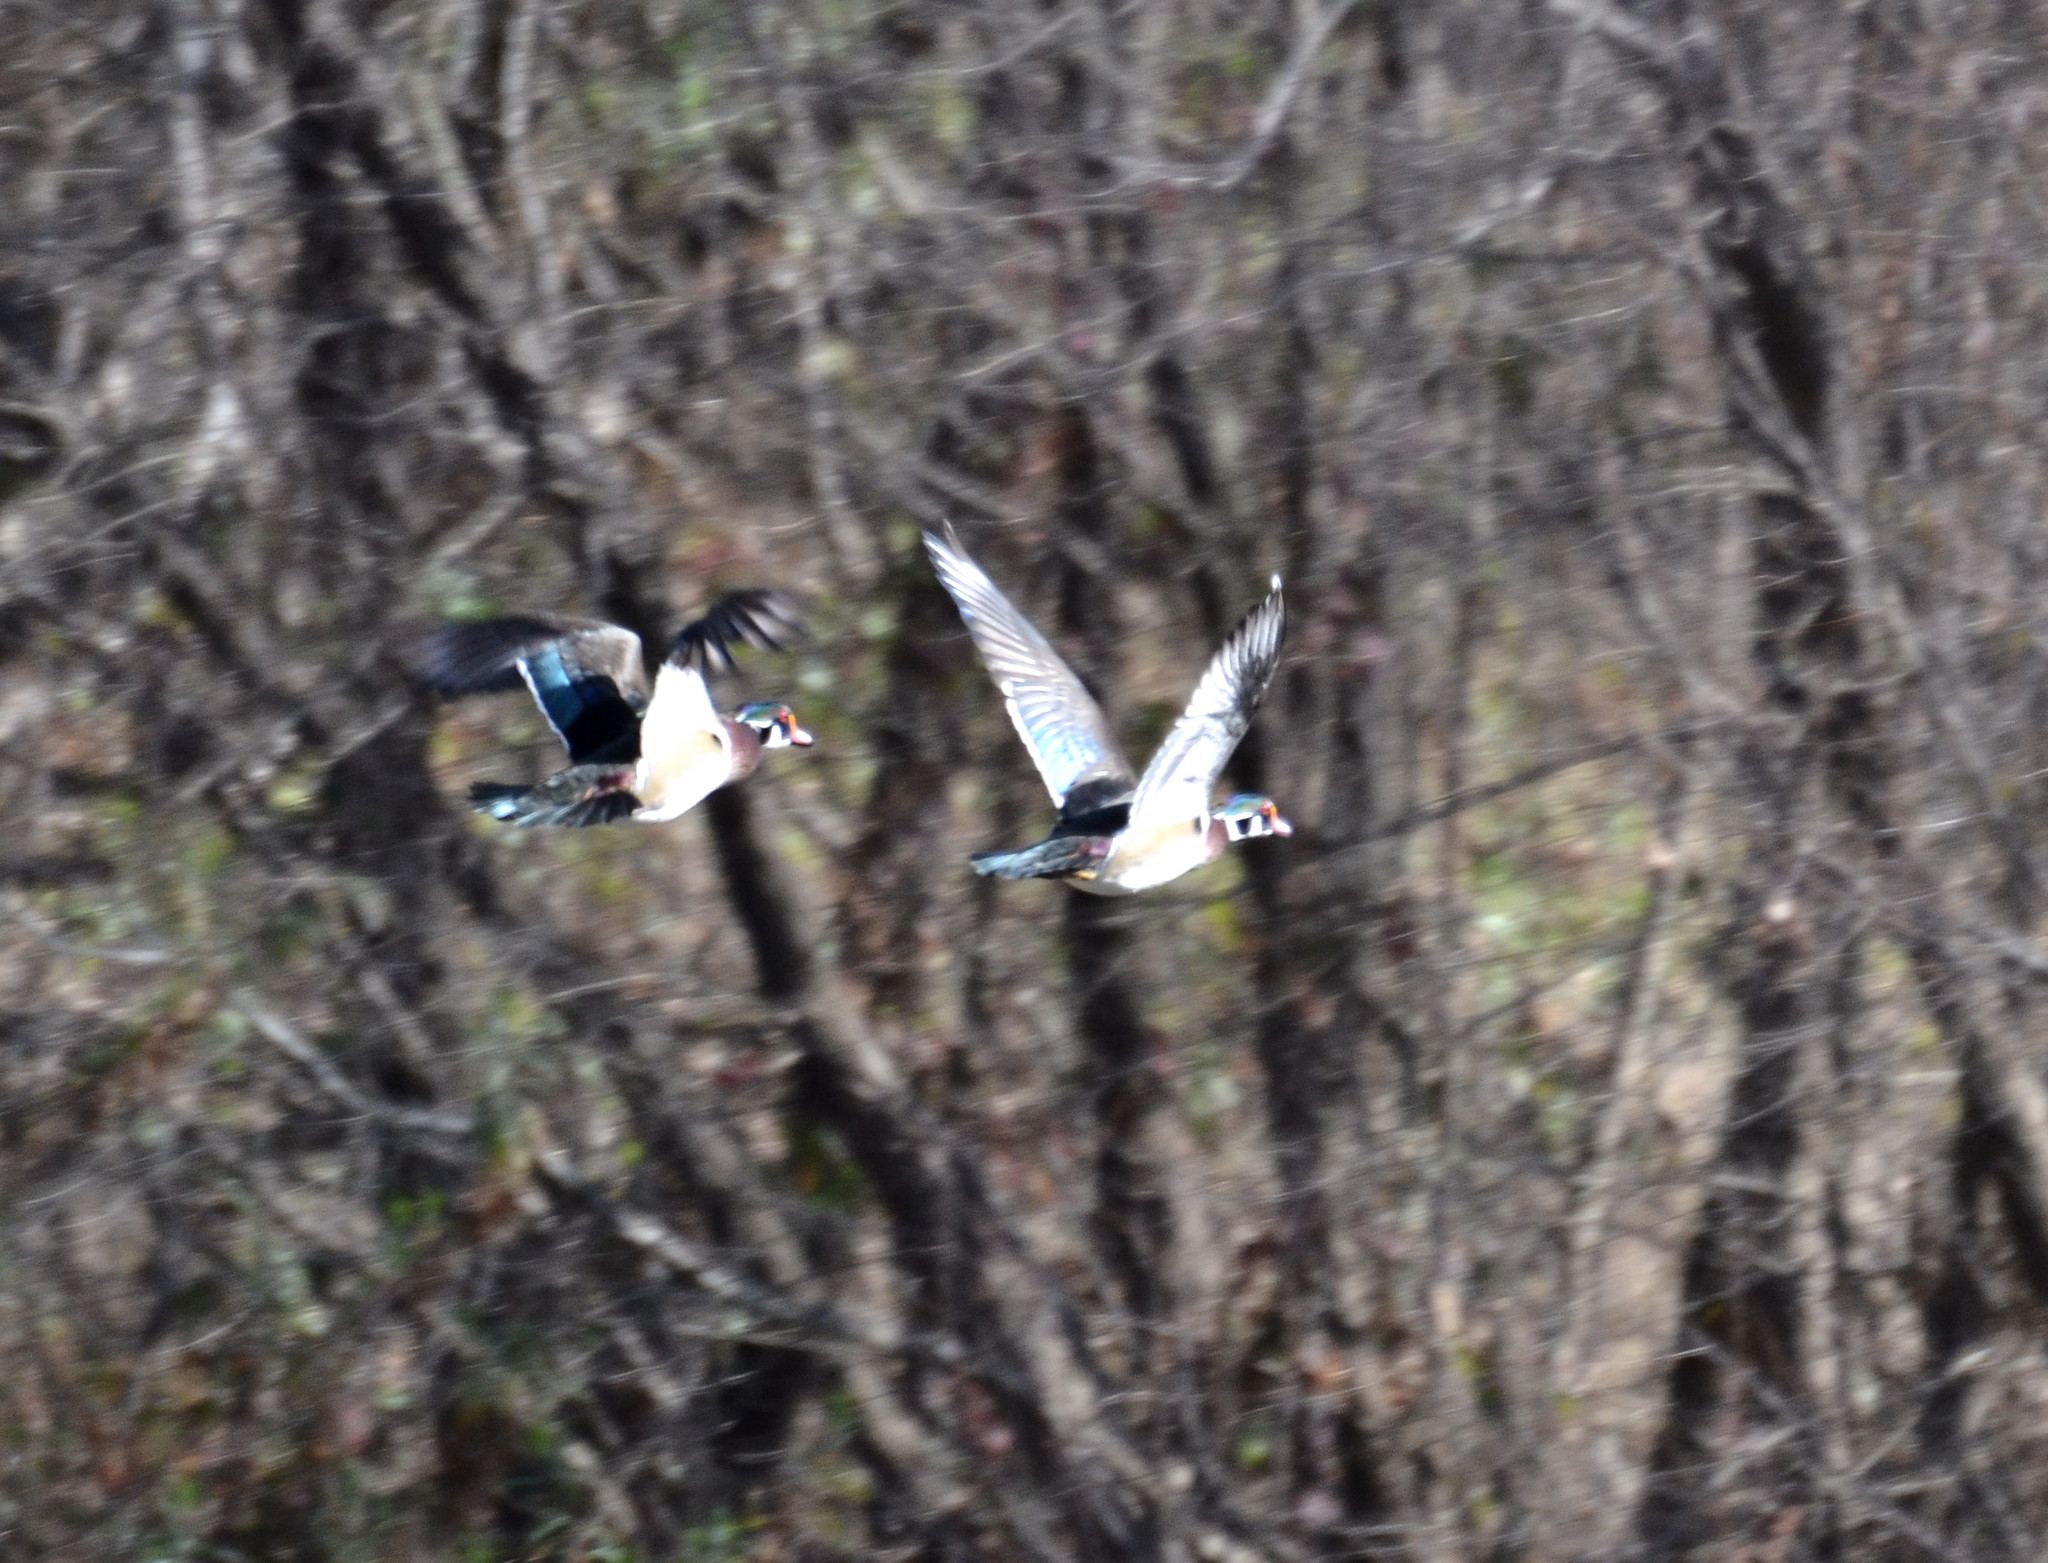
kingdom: Animalia
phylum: Chordata
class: Aves
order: Anseriformes
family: Anatidae
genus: Aix
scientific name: Aix sponsa
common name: Wood duck
